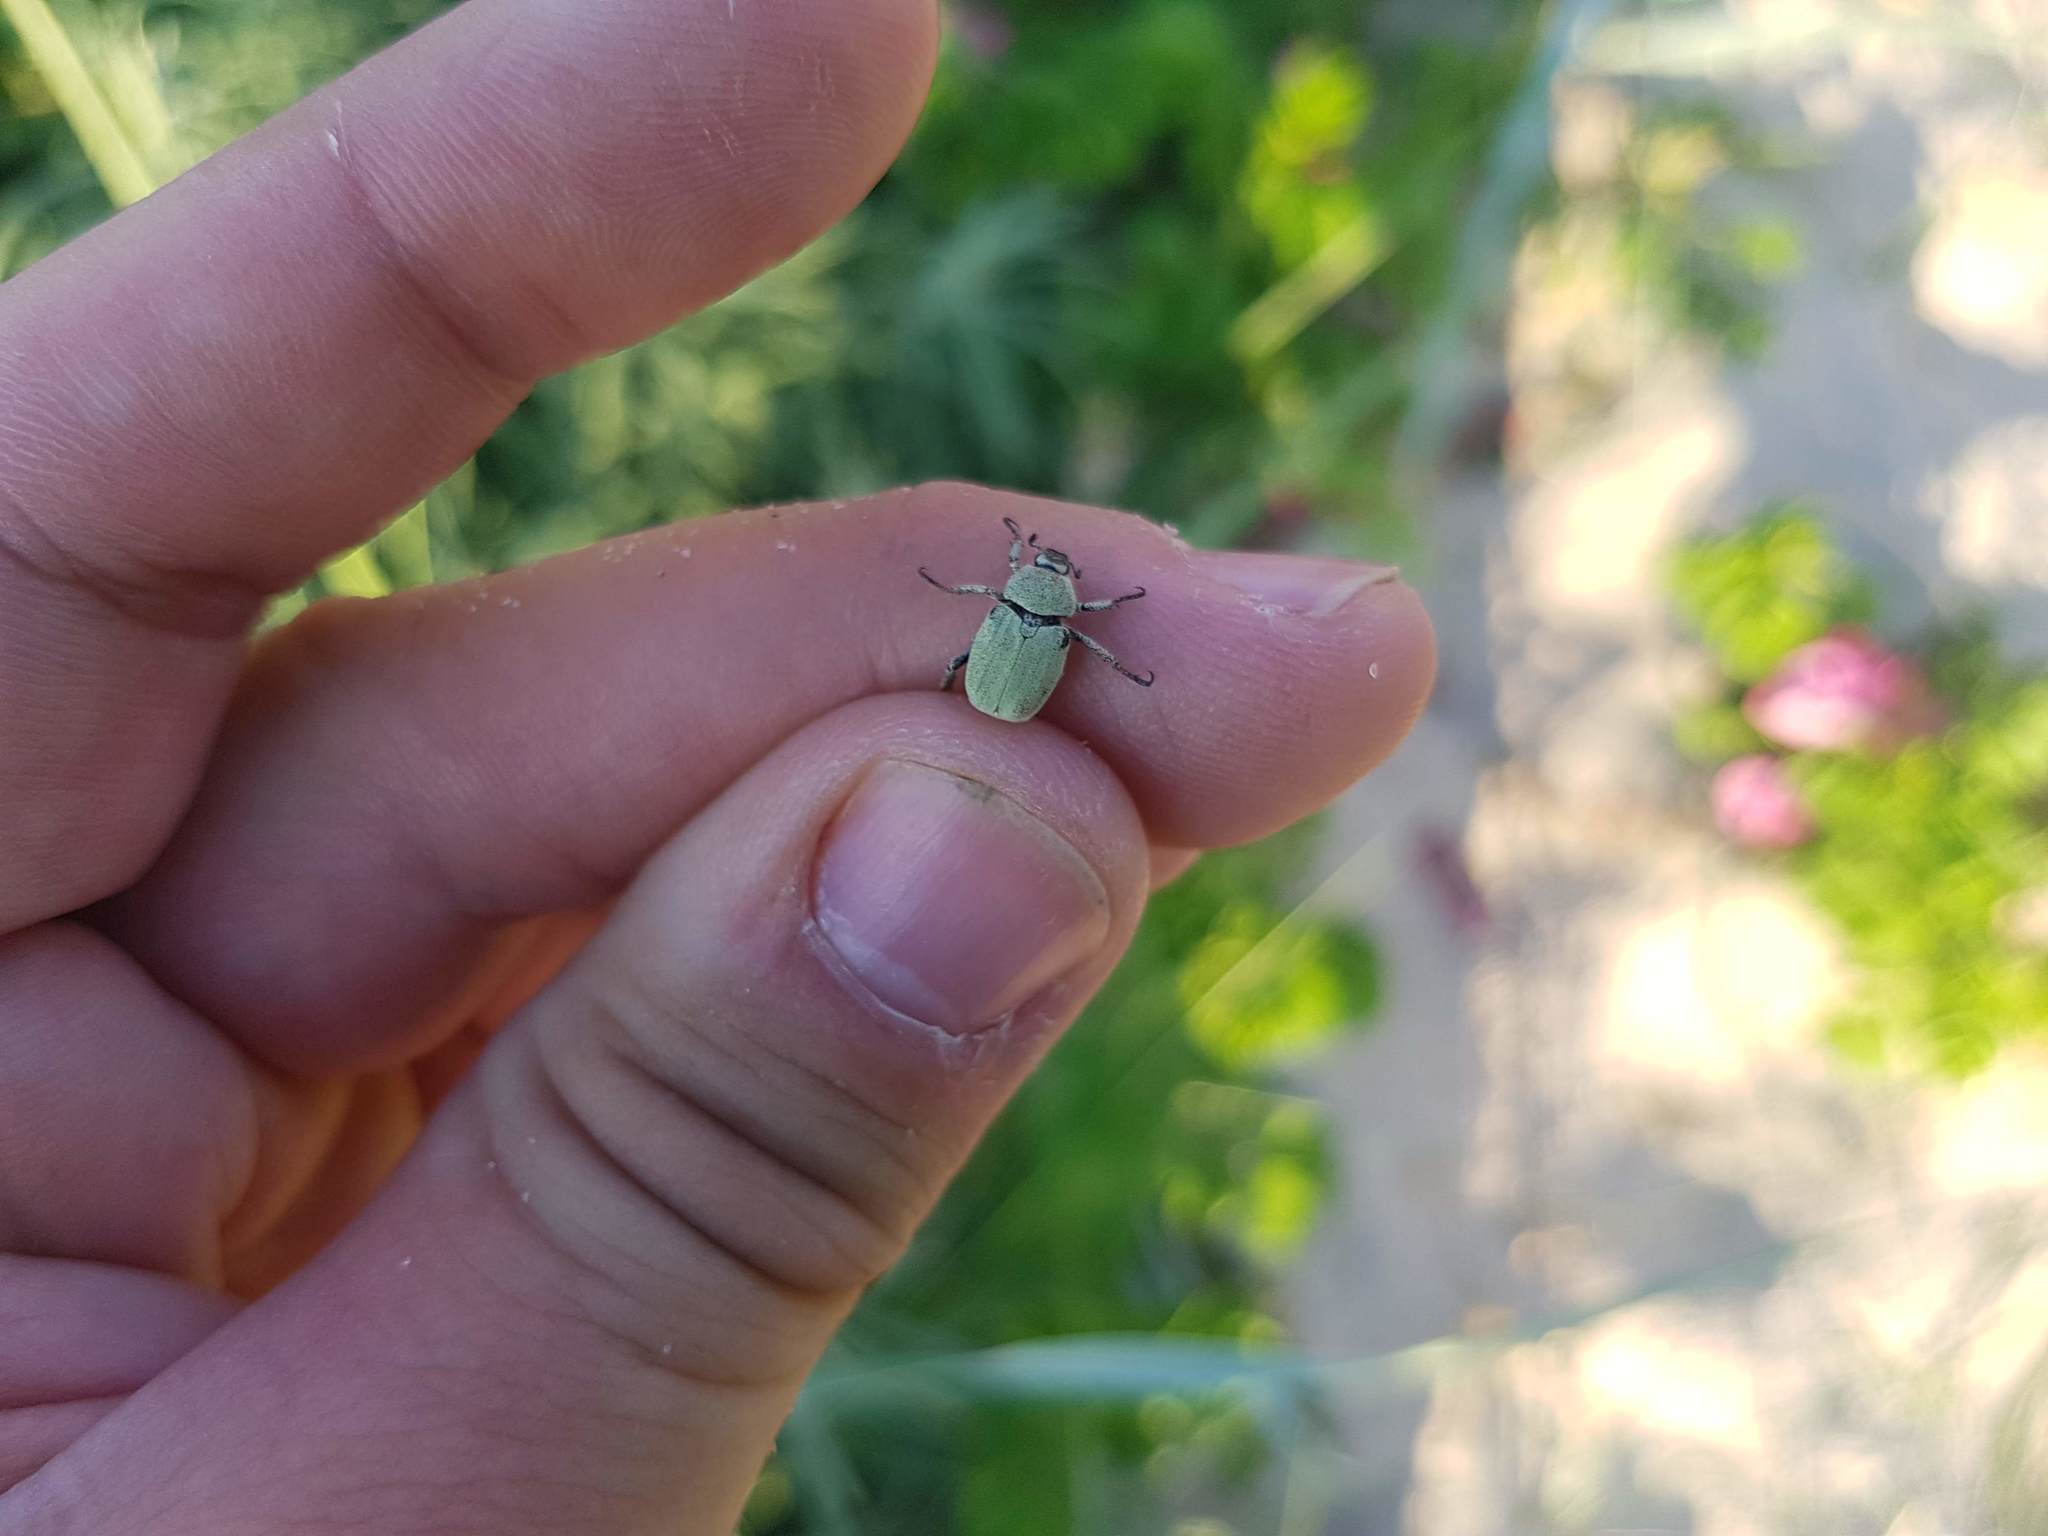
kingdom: Animalia
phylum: Arthropoda
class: Insecta
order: Coleoptera
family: Scarabaeidae
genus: Hoplia
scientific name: Hoplia parvula
